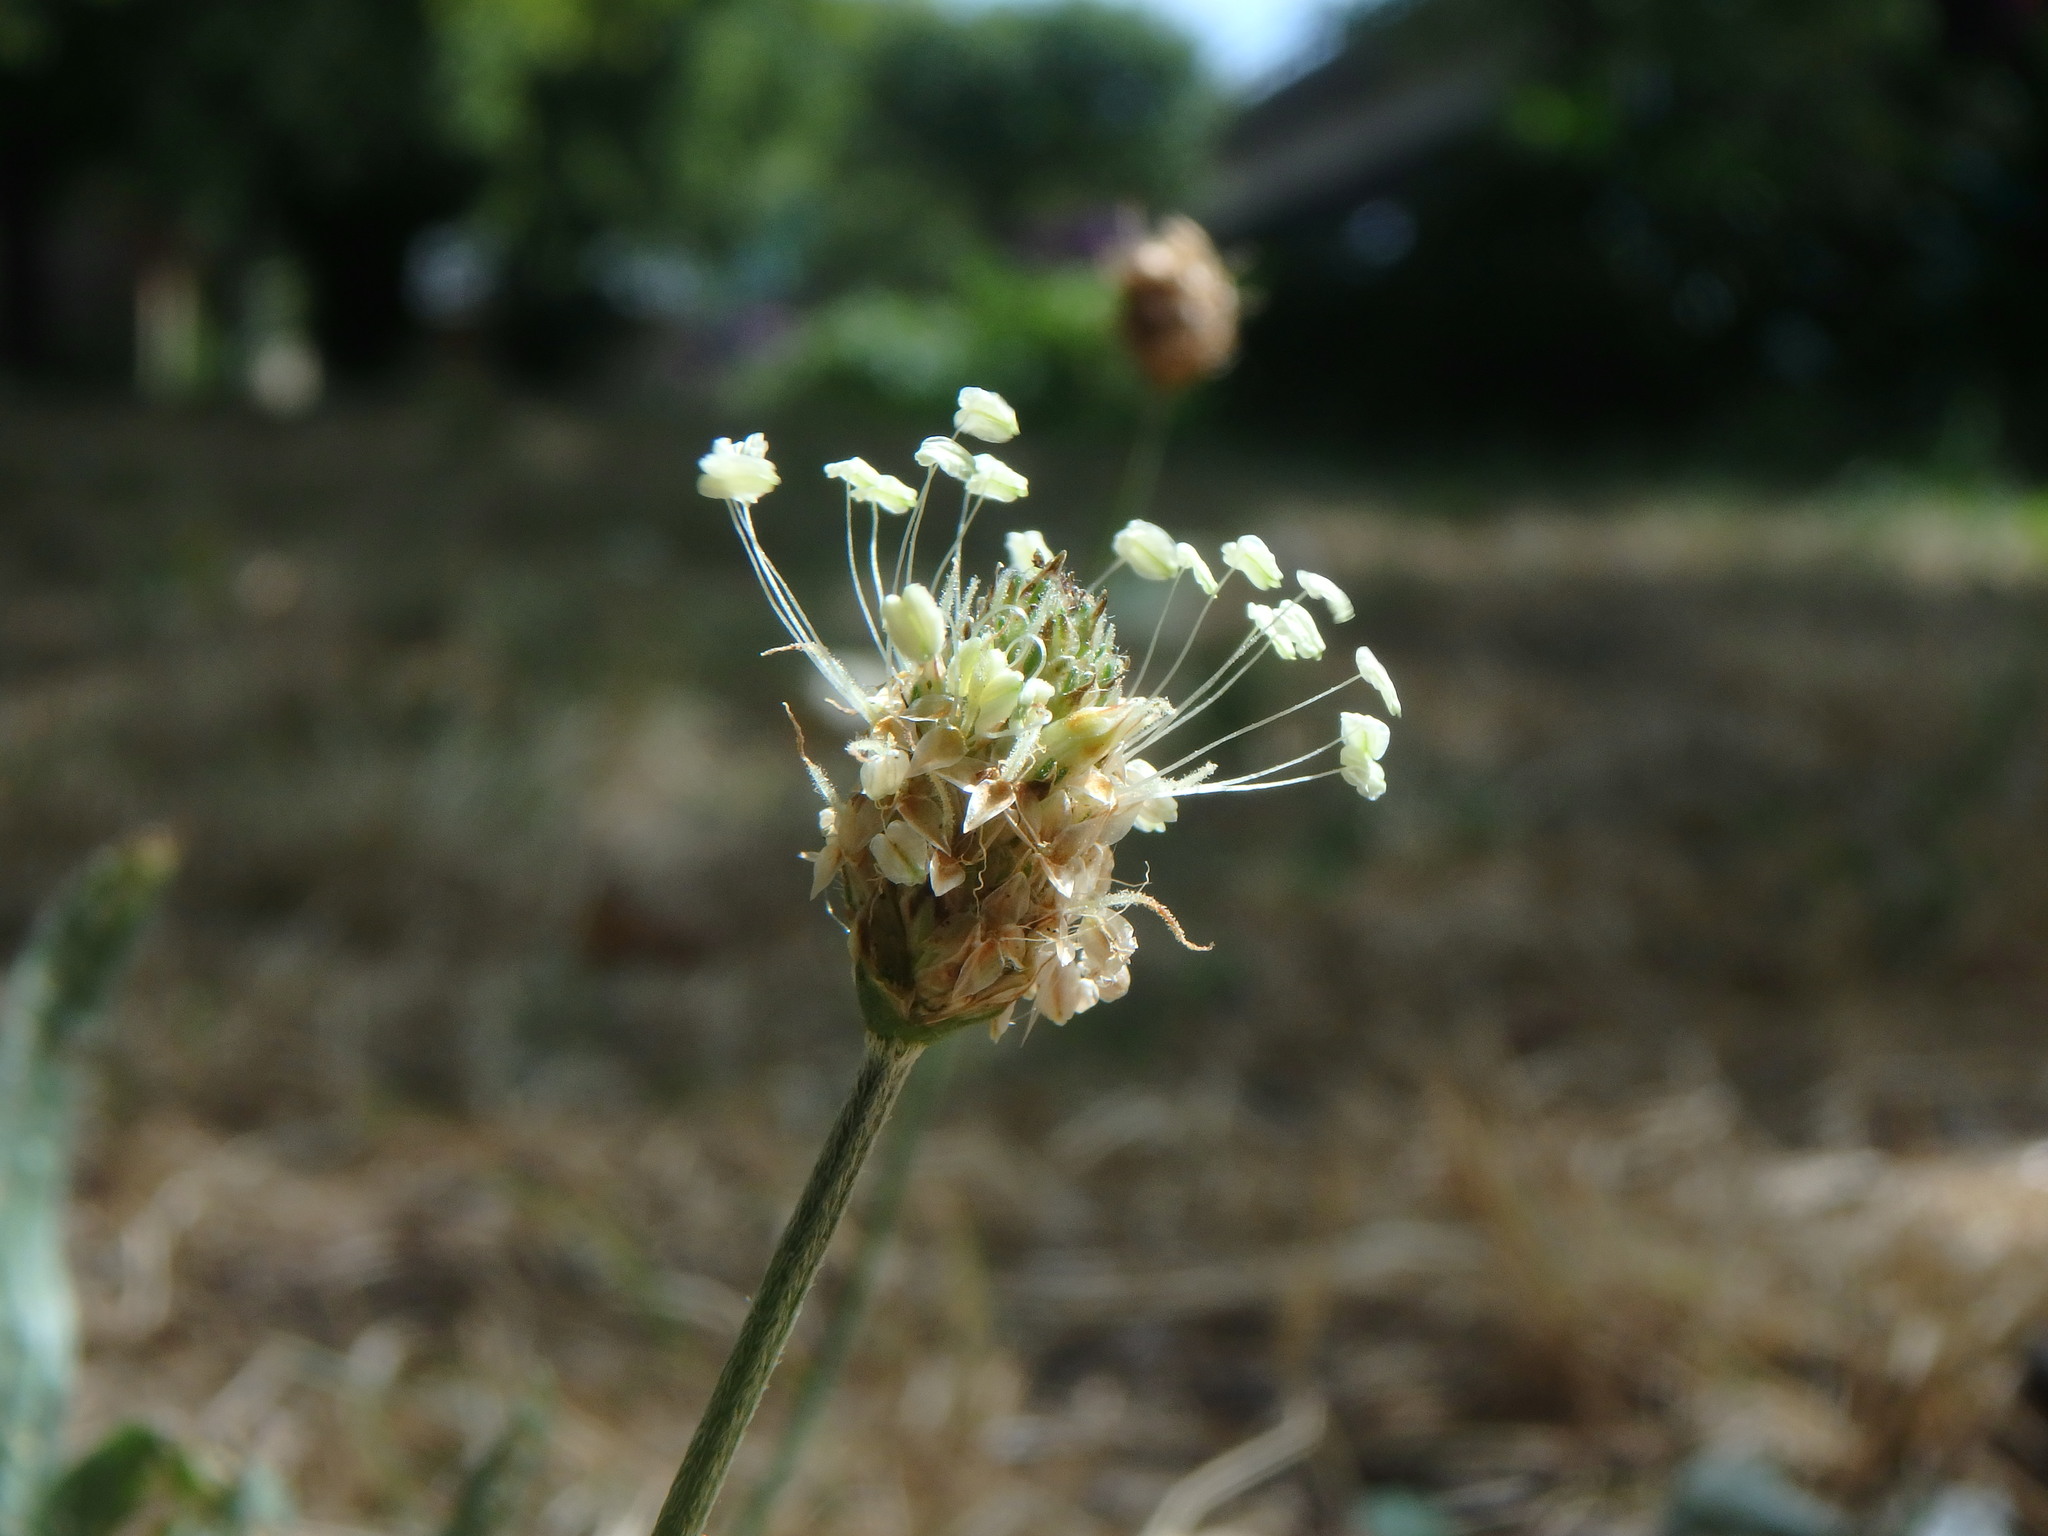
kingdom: Plantae
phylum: Tracheophyta
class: Magnoliopsida
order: Lamiales
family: Plantaginaceae
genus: Plantago
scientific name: Plantago lanceolata
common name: Ribwort plantain
